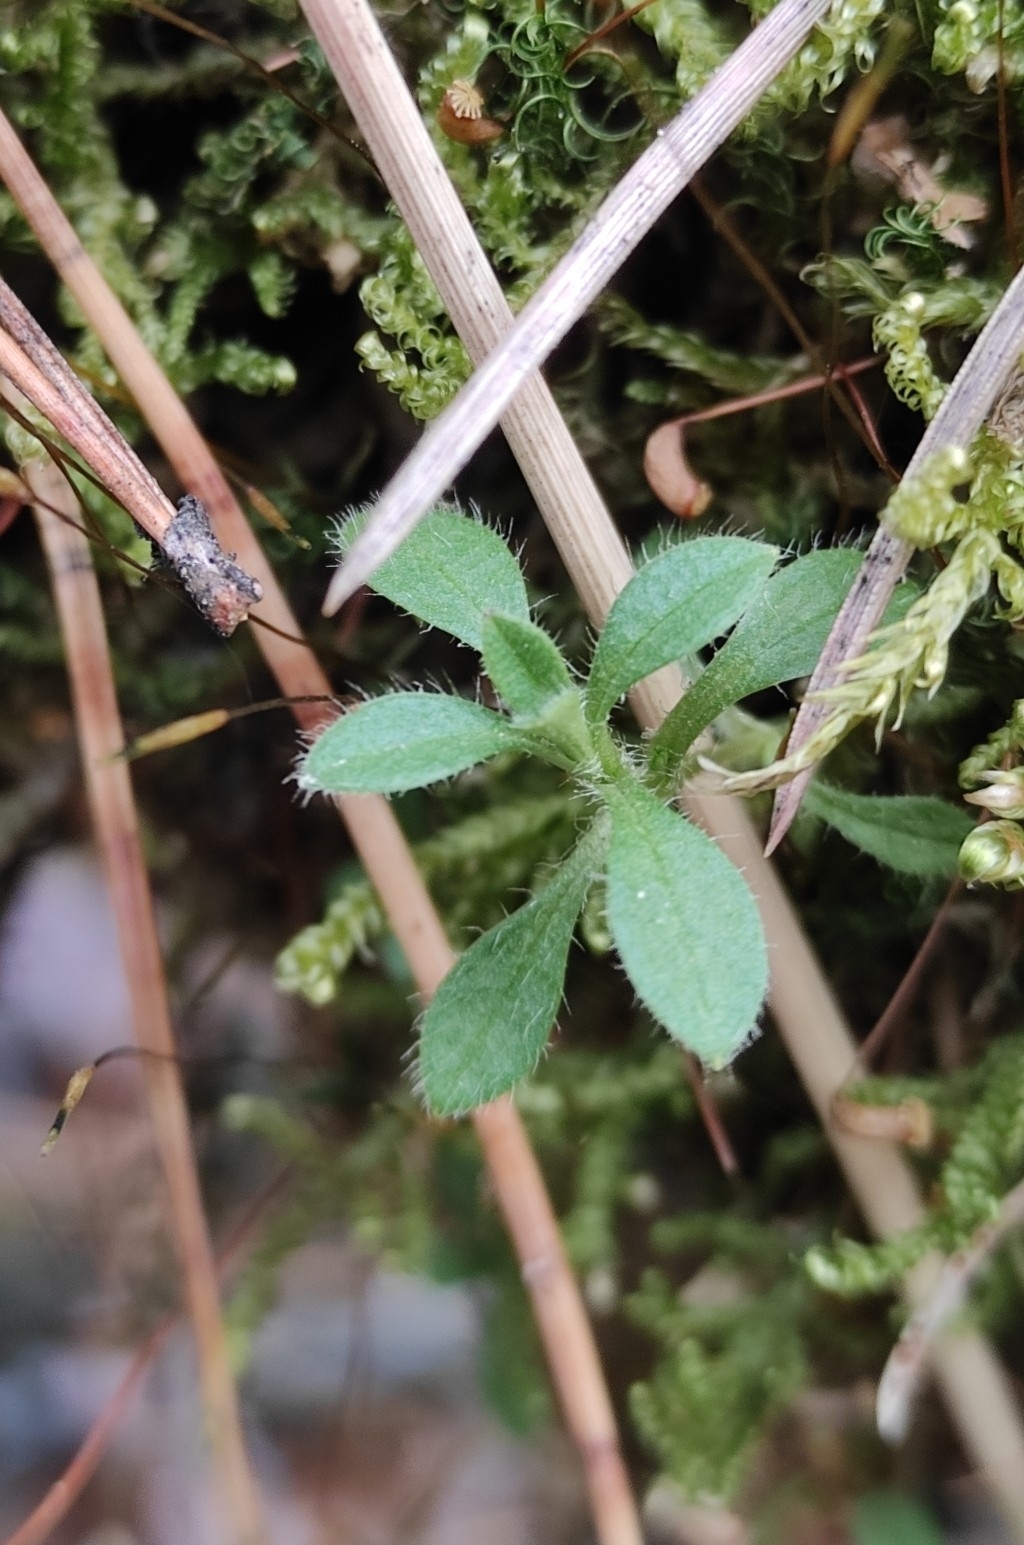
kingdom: Plantae
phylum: Tracheophyta
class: Magnoliopsida
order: Caryophyllales
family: Caryophyllaceae
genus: Cerastium
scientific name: Cerastium holosteoides
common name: Big chickweed
